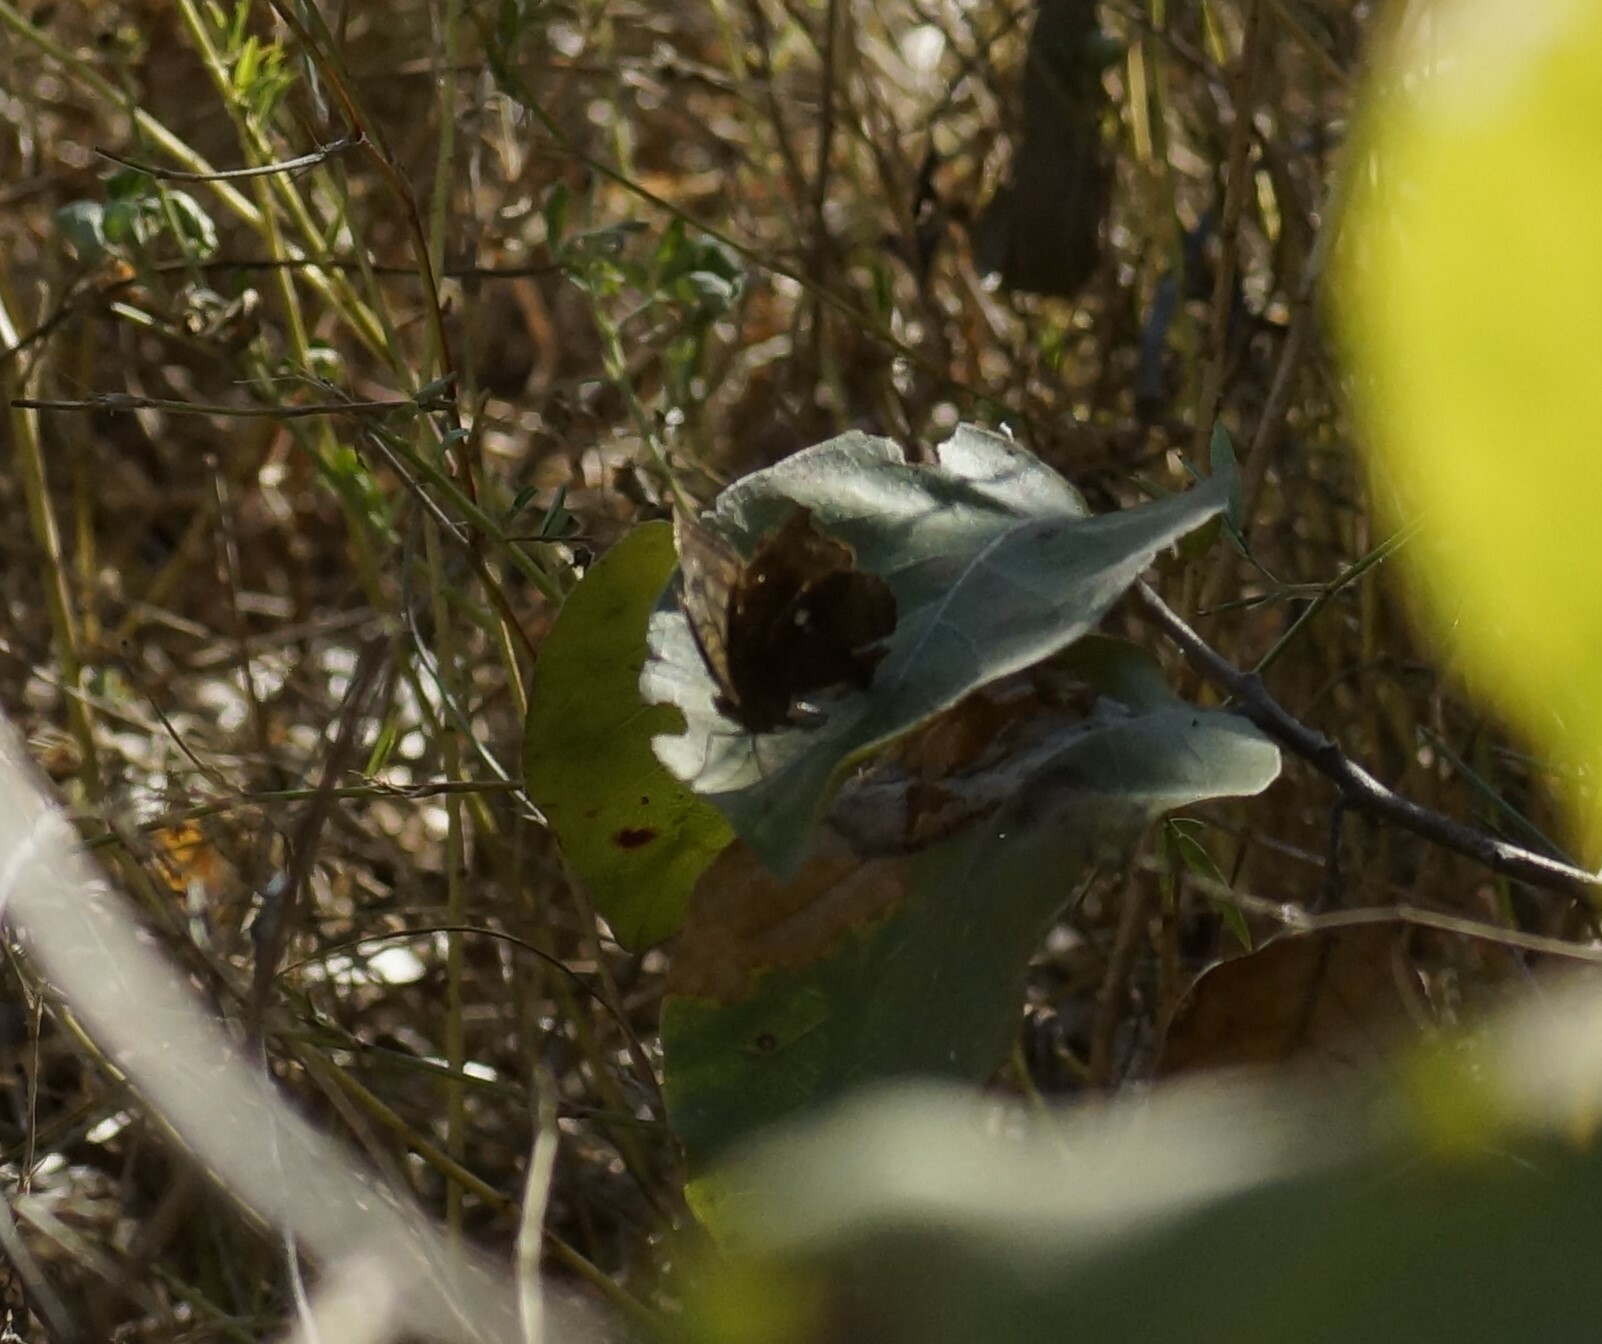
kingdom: Animalia
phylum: Arthropoda
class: Insecta
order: Lepidoptera
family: Nymphalidae
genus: Junonia
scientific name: Junonia hedonia
